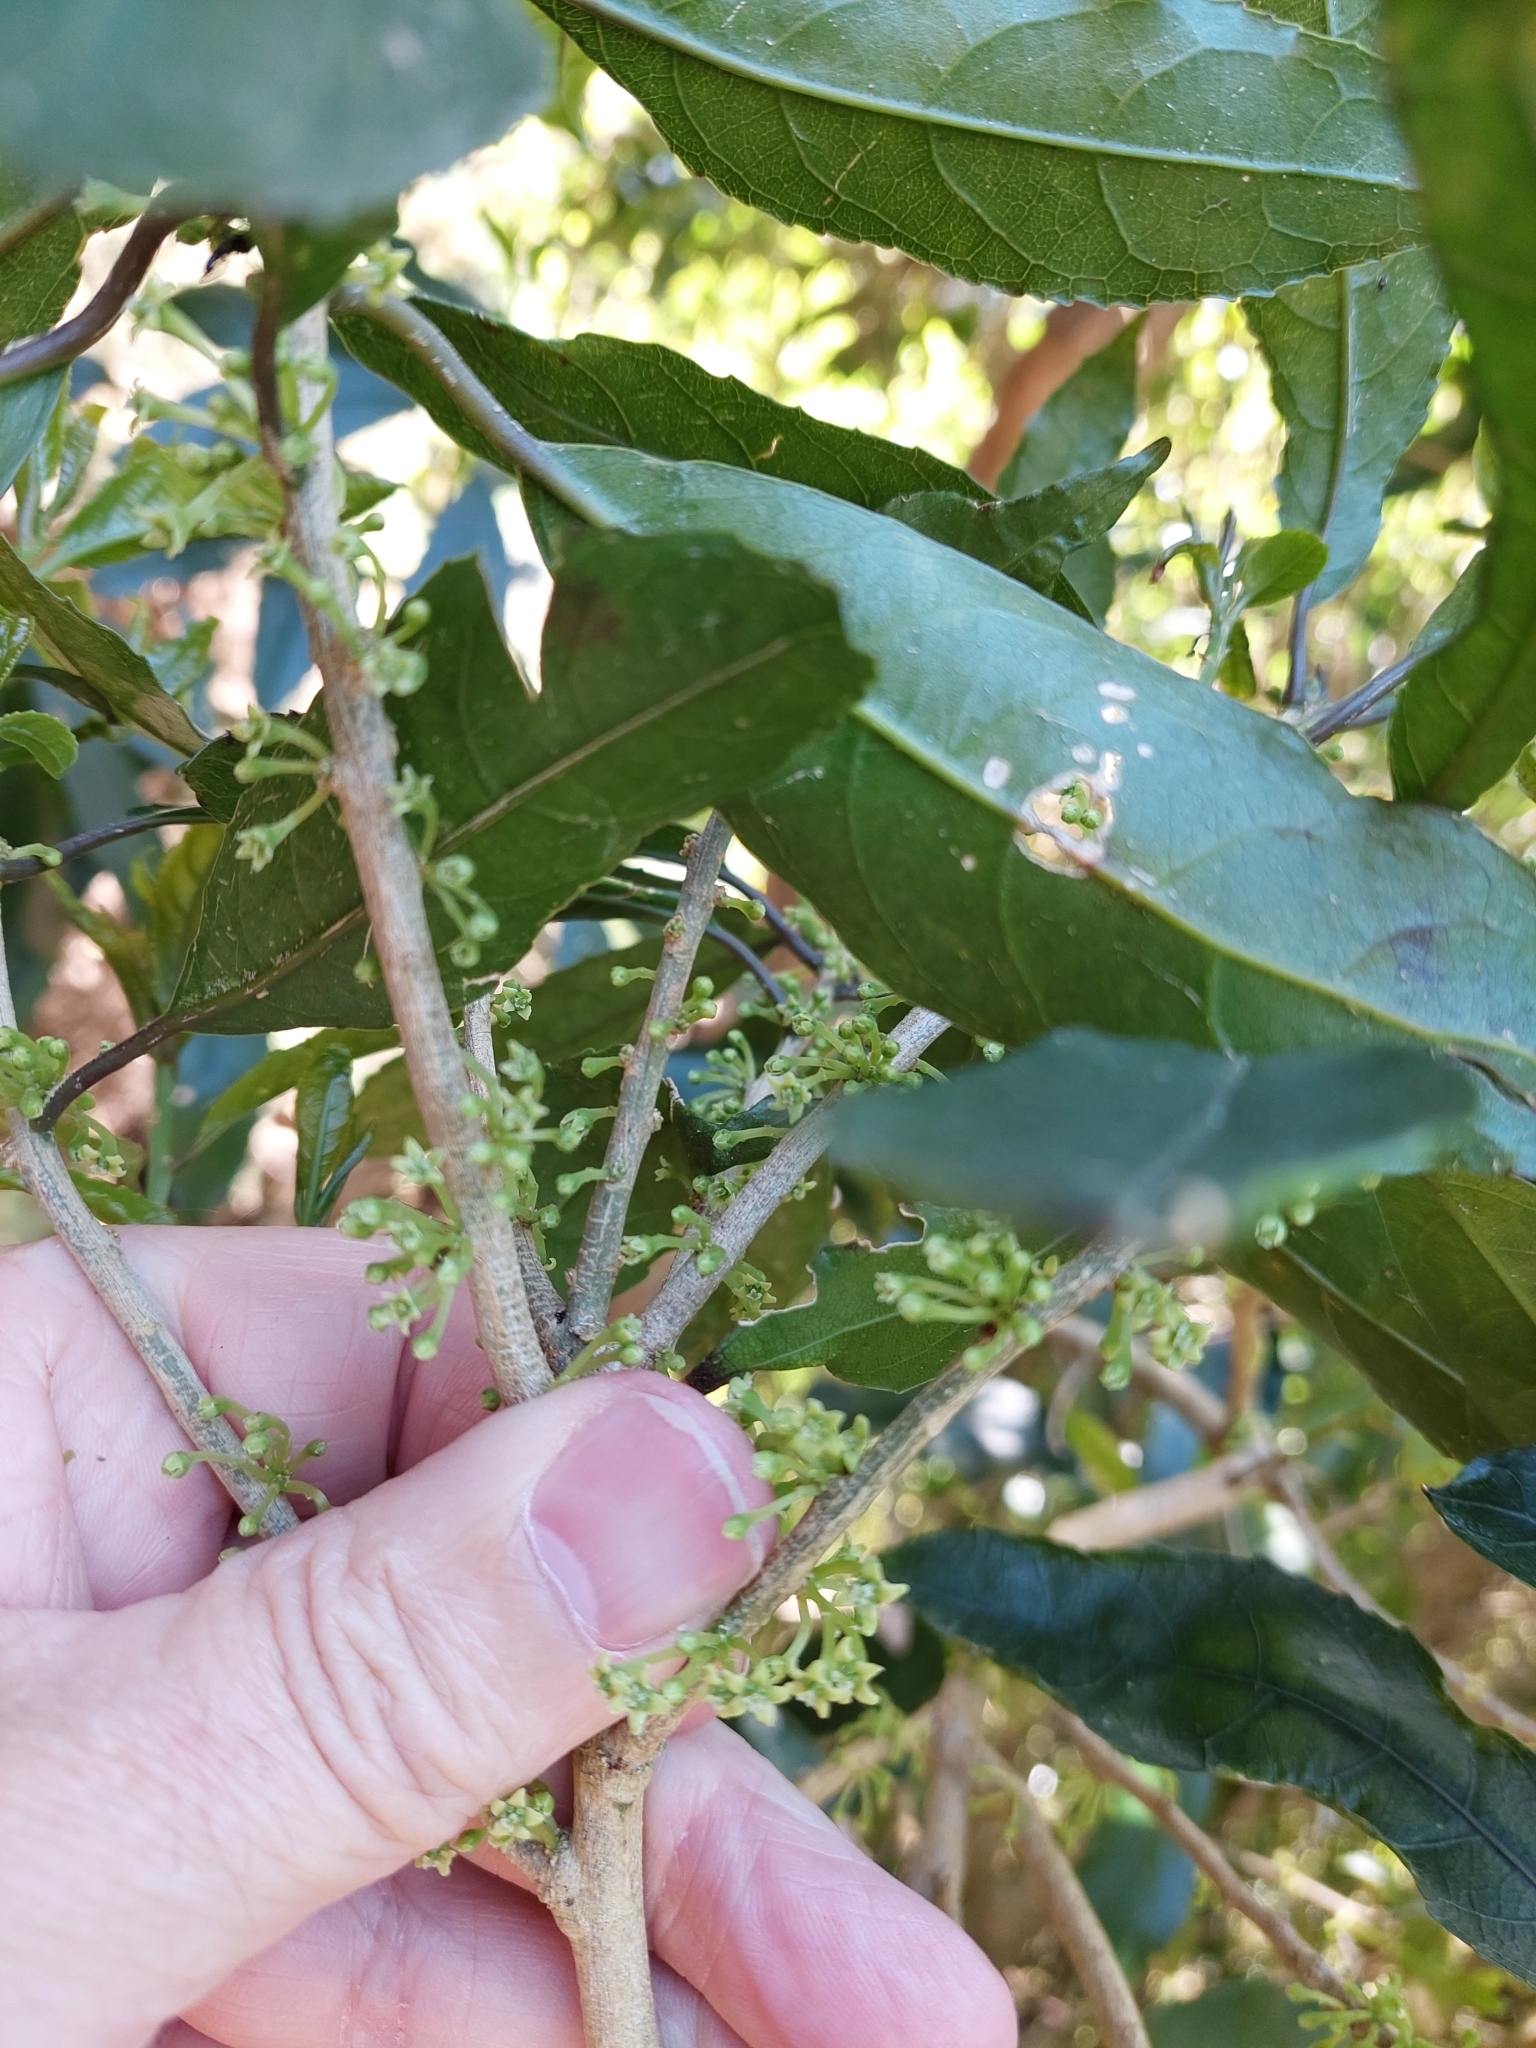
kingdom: Plantae
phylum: Tracheophyta
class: Magnoliopsida
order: Malpighiales
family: Violaceae
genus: Melicytus
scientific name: Melicytus ramiflorus
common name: Mahoe
